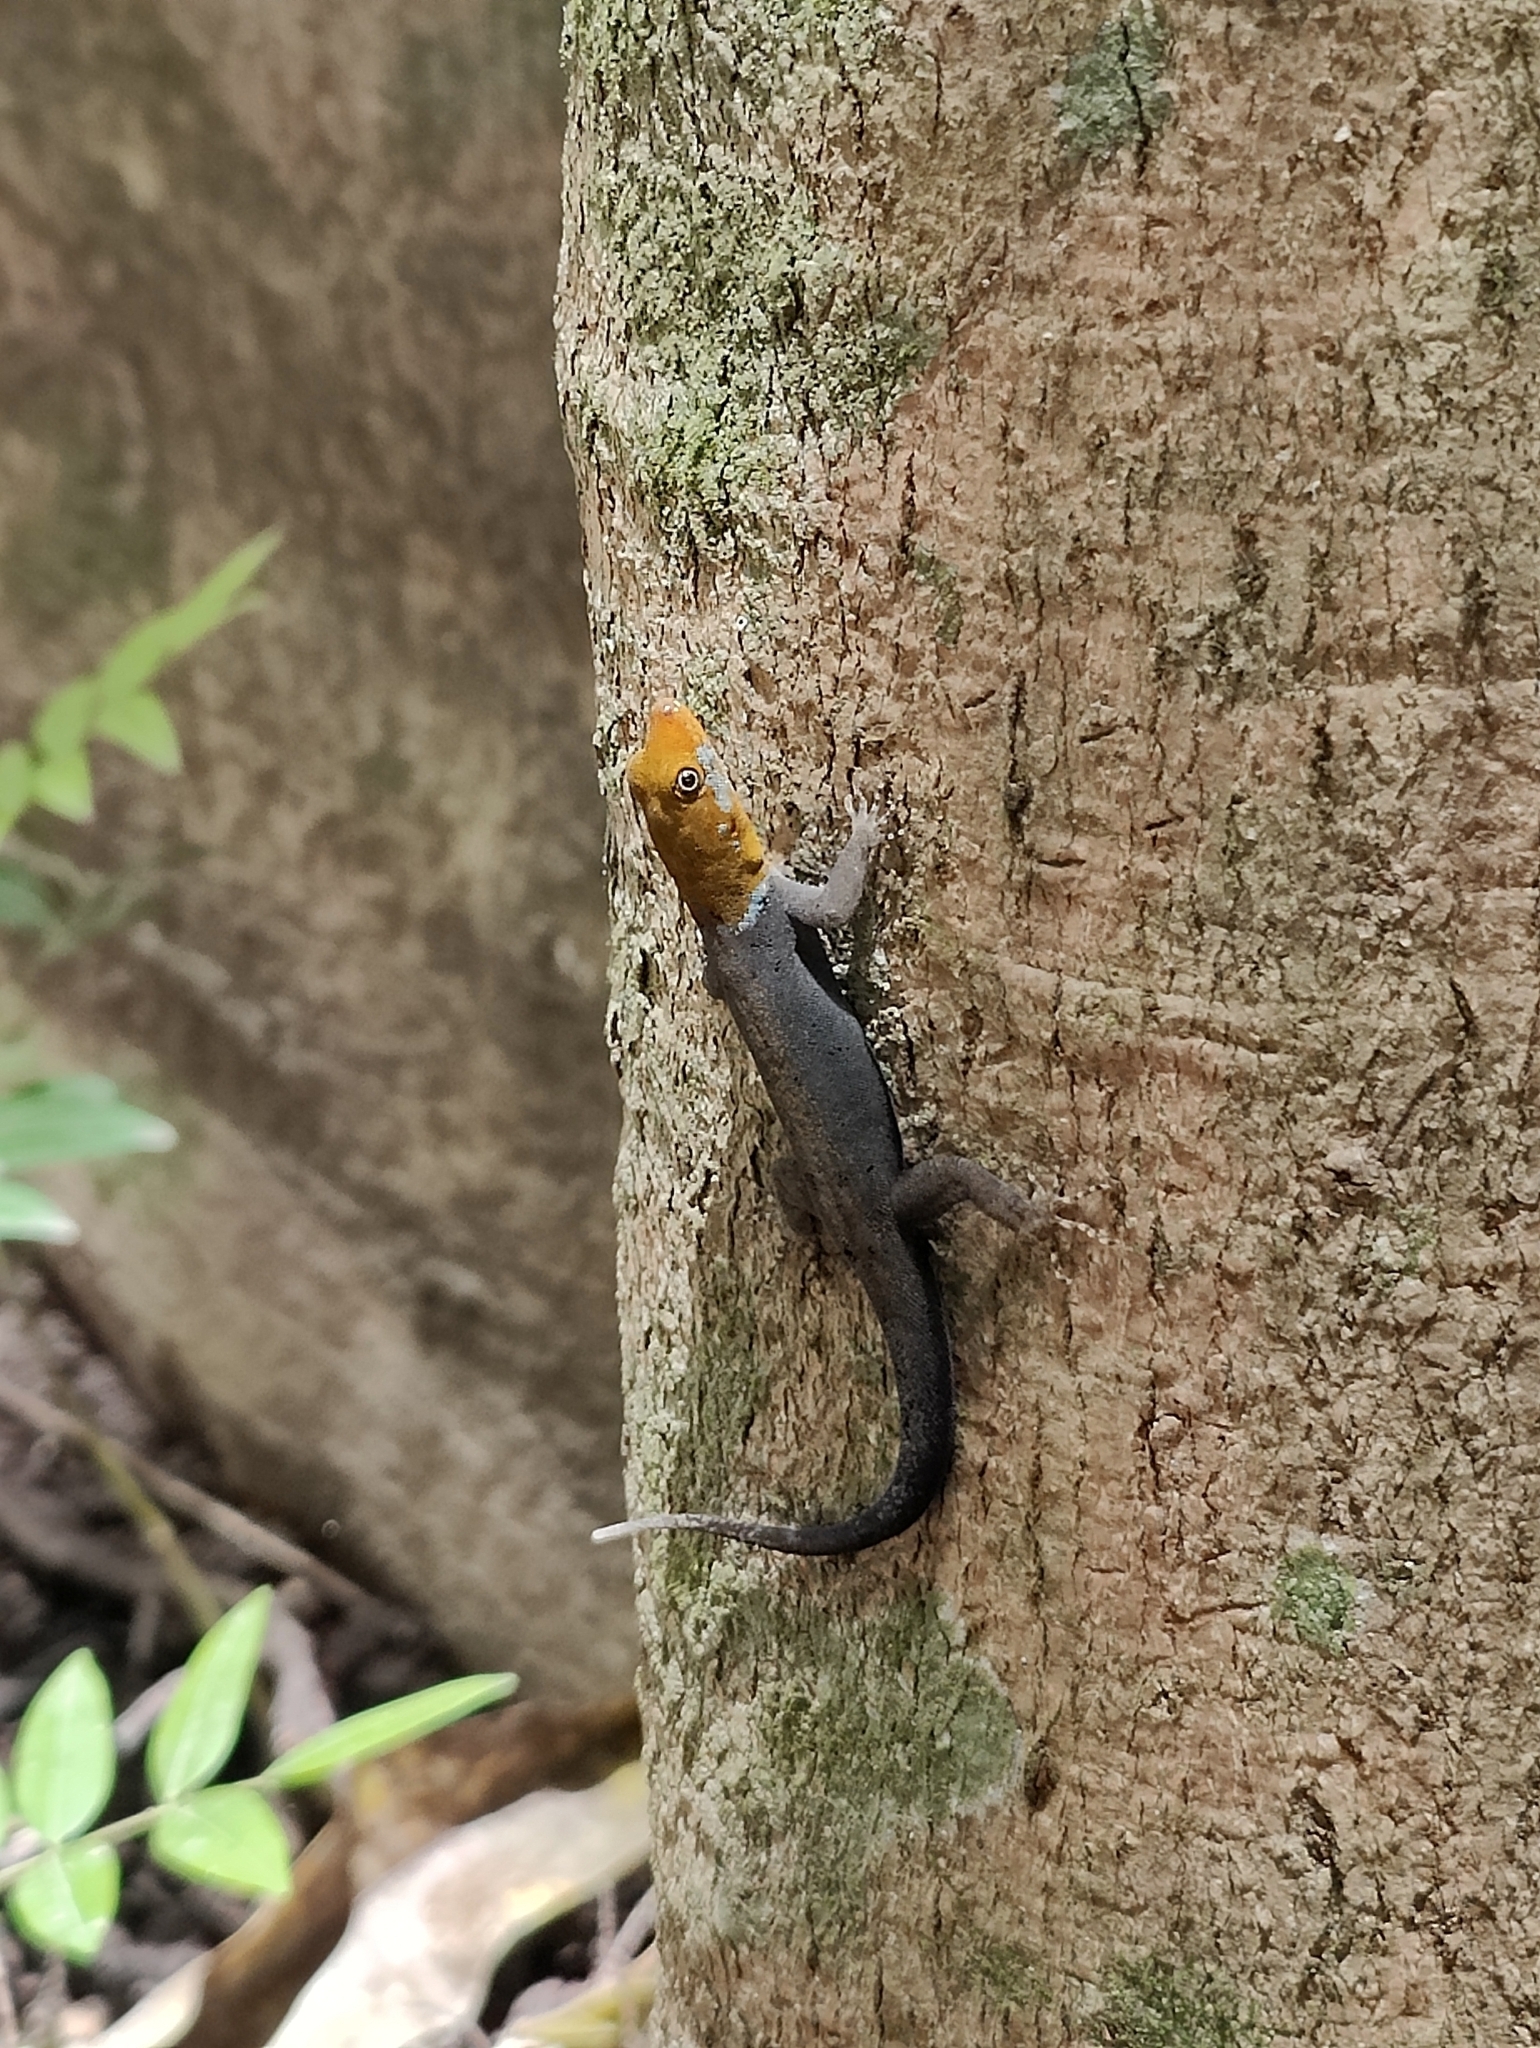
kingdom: Animalia
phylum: Chordata
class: Squamata
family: Sphaerodactylidae
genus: Gonatodes
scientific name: Gonatodes albogularis
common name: Yellow-headed gecko
